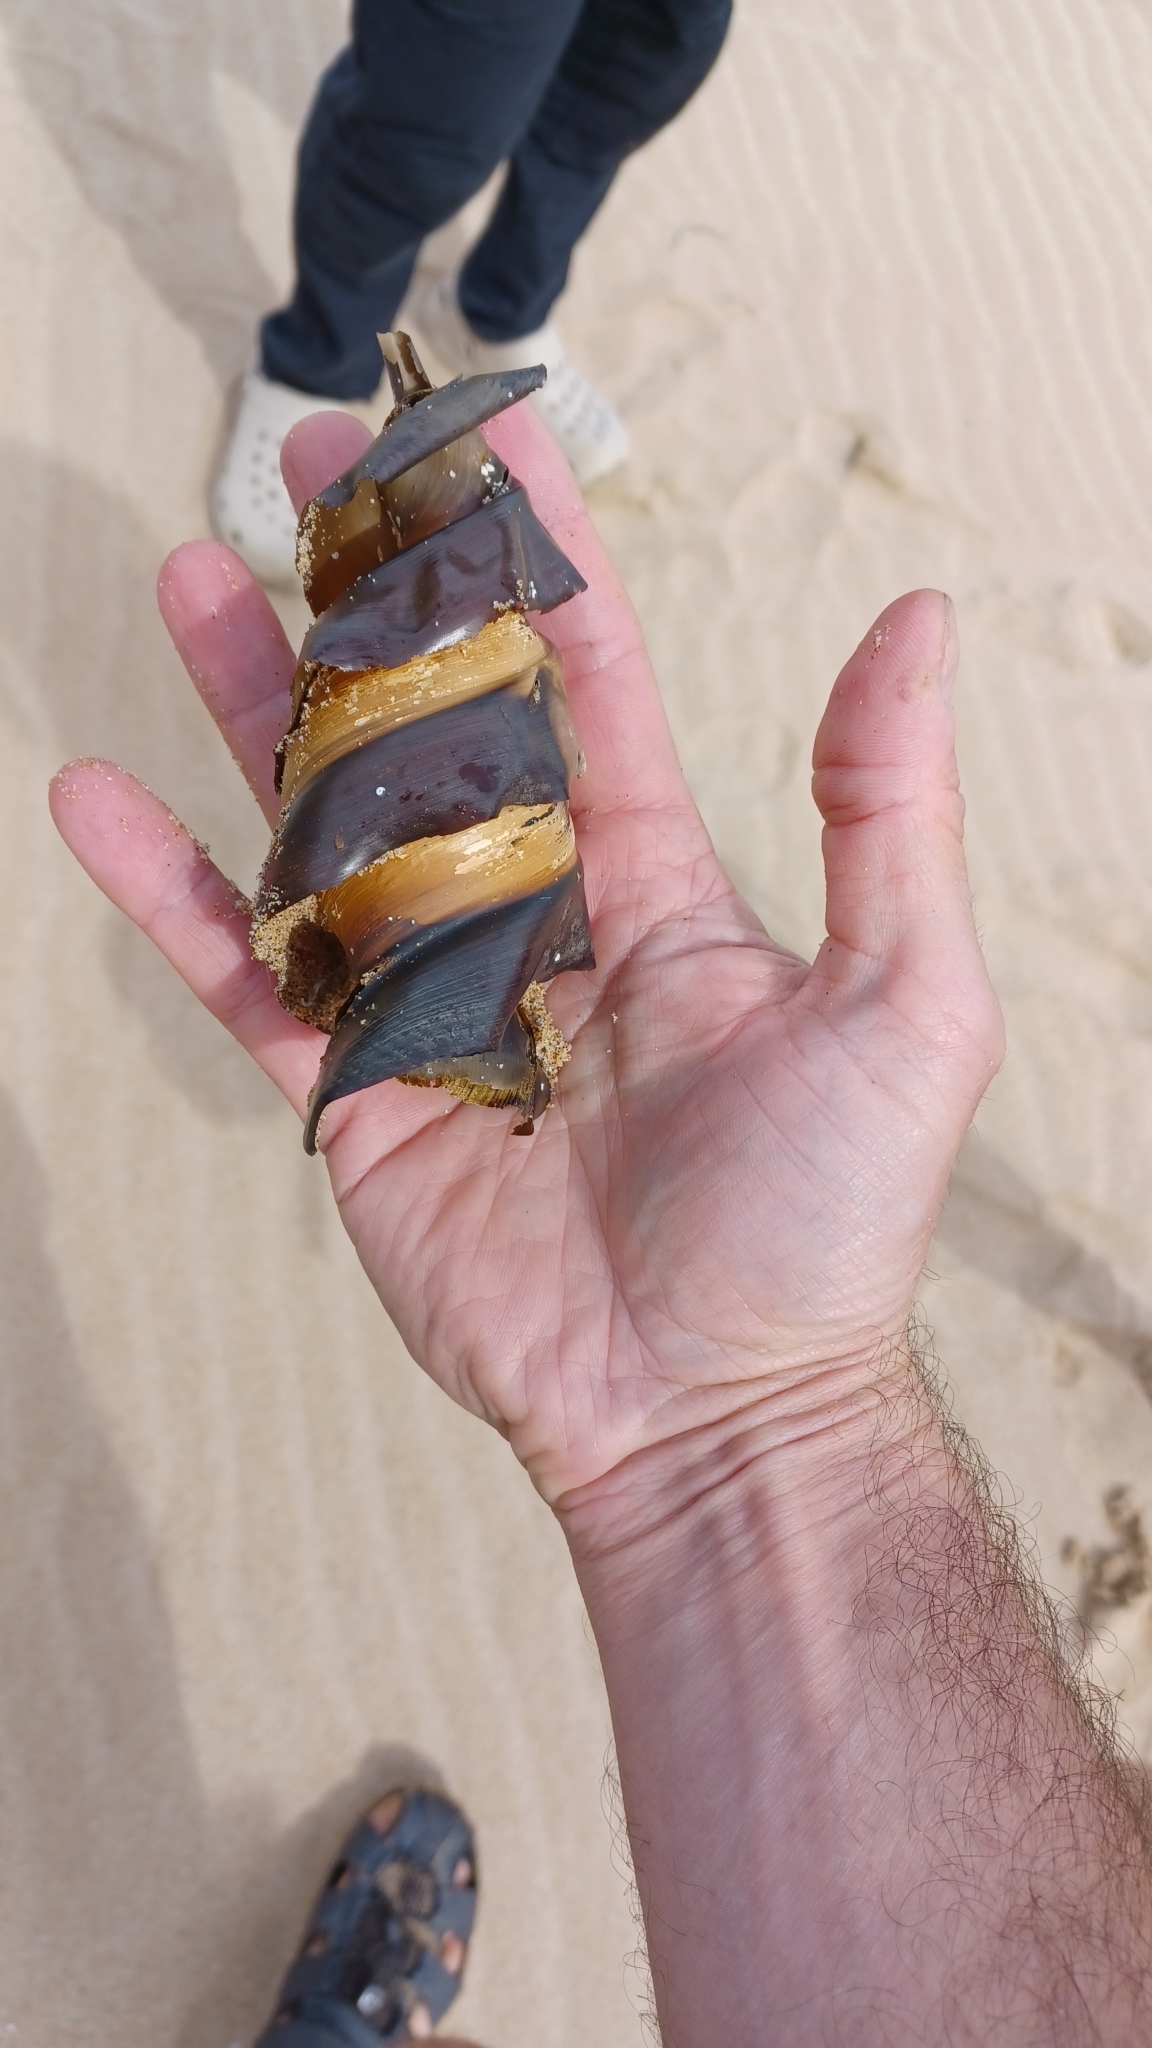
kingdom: Animalia
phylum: Chordata
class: Elasmobranchii
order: Heterodontiformes
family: Heterodontidae
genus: Heterodontus
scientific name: Heterodontus portusjacksoni
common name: Port jackson shark
